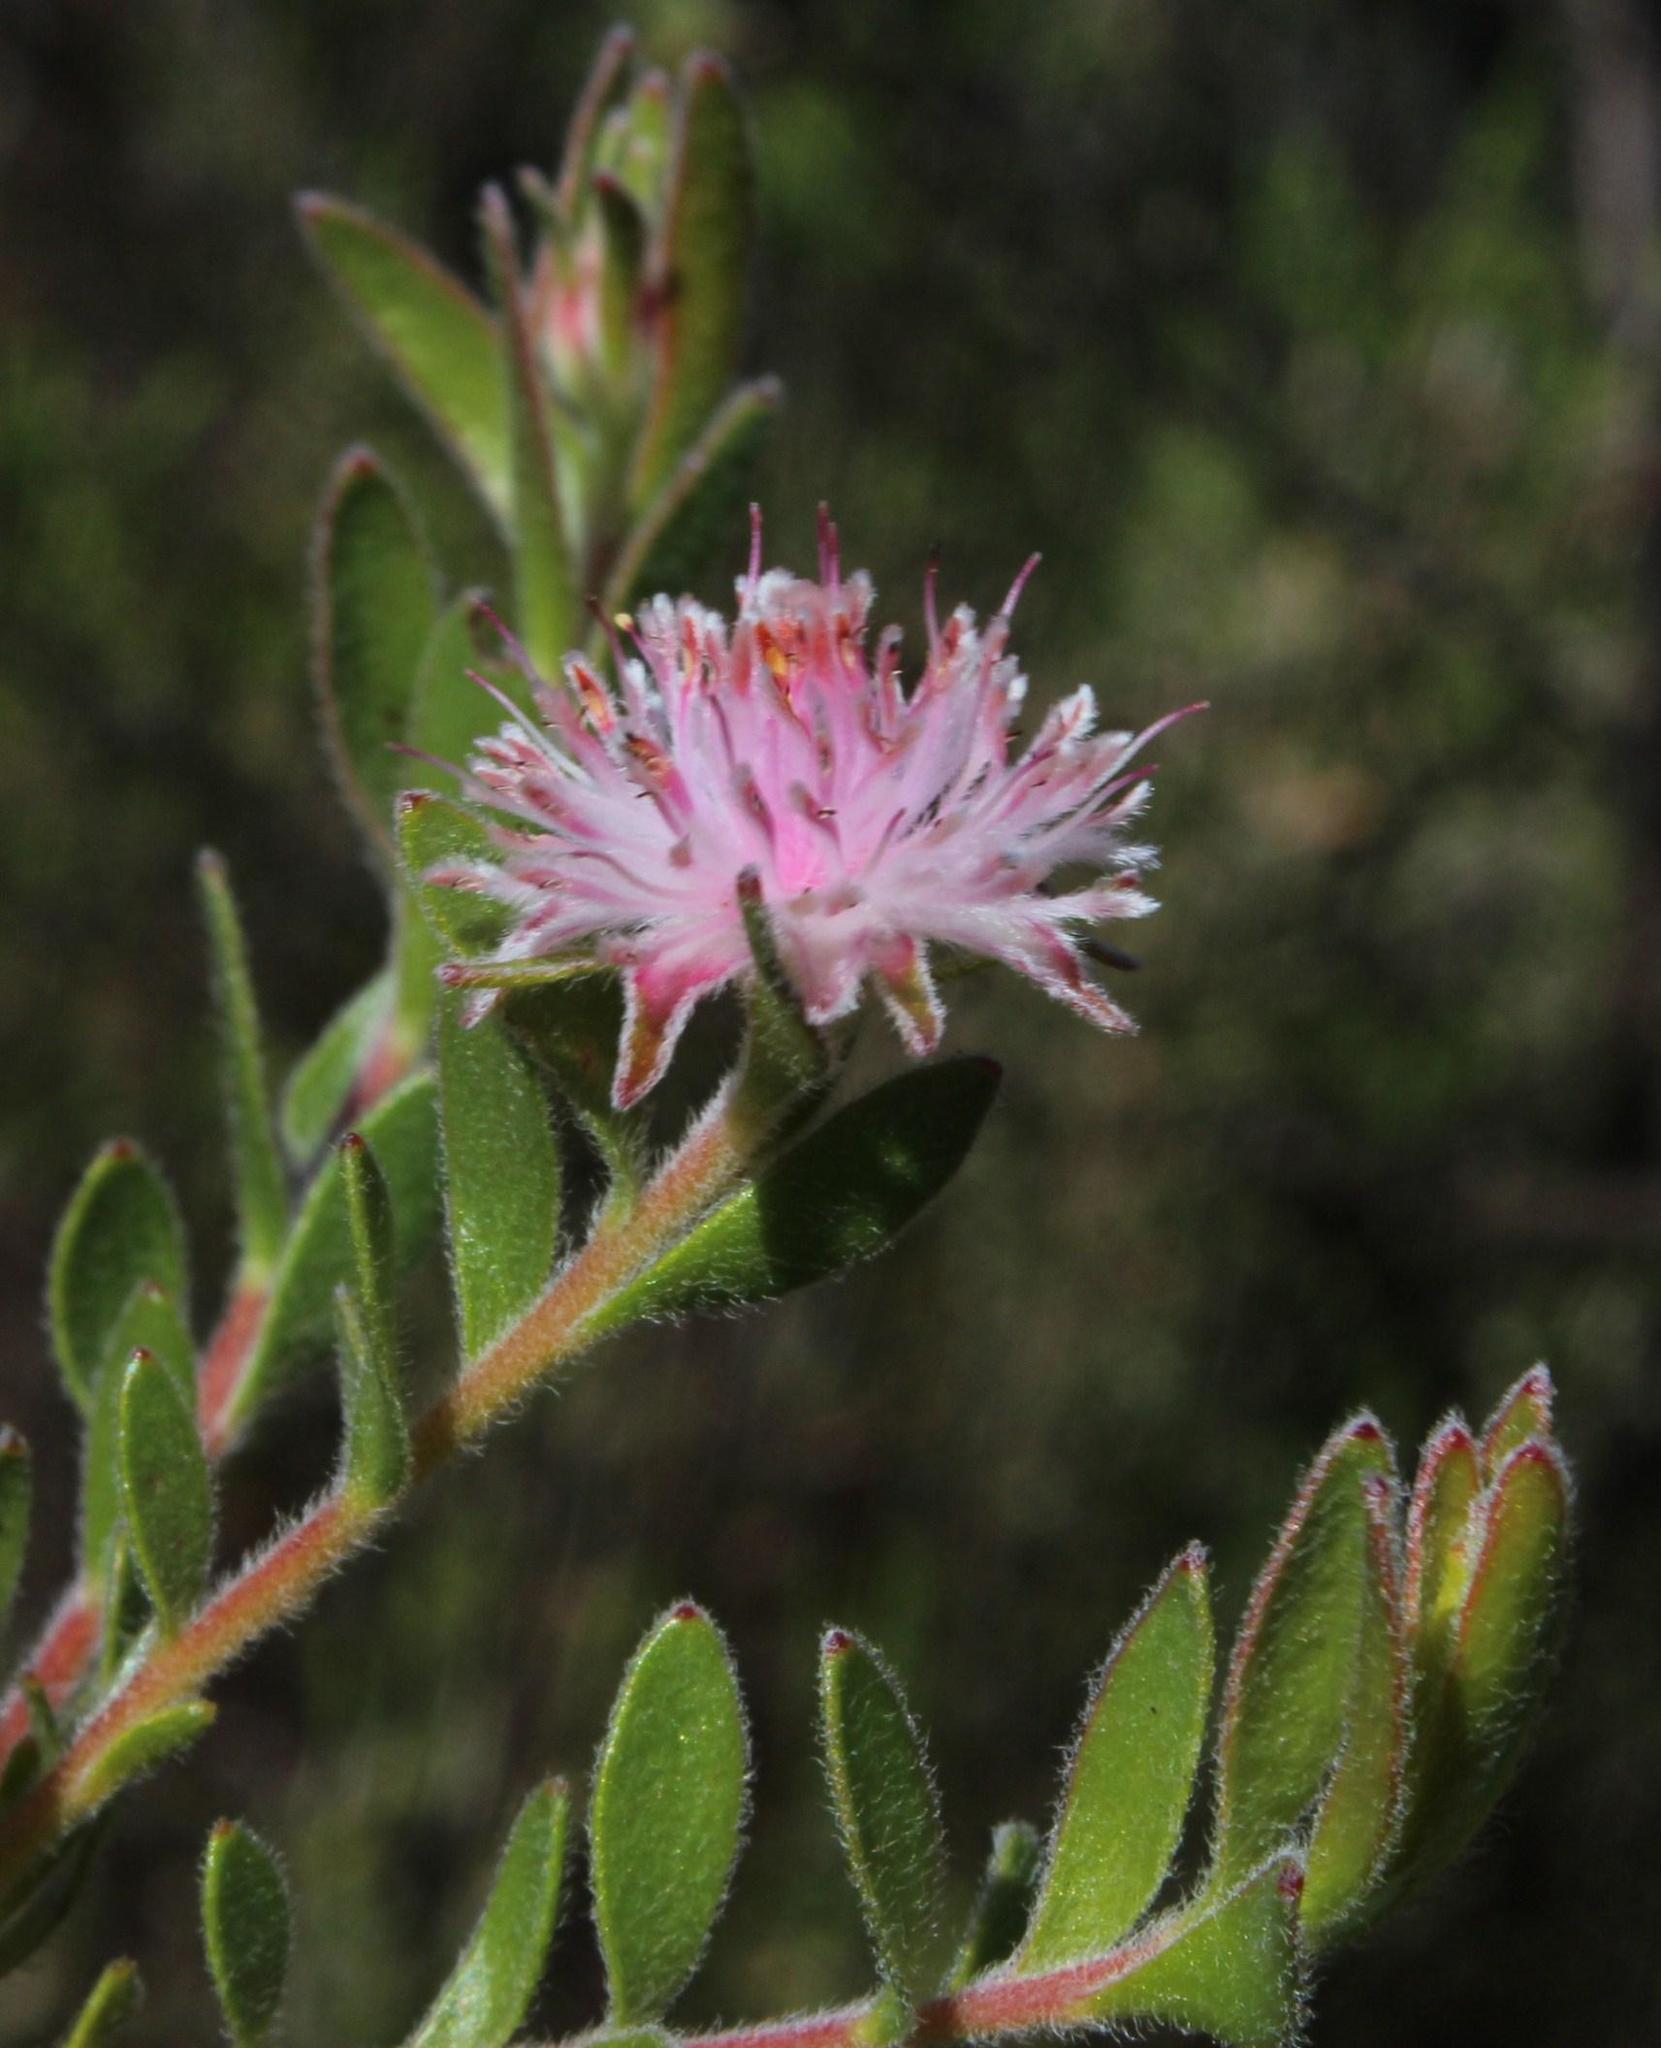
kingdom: Plantae
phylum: Tracheophyta
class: Magnoliopsida
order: Proteales
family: Proteaceae
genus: Diastella
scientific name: Diastella divaricata
